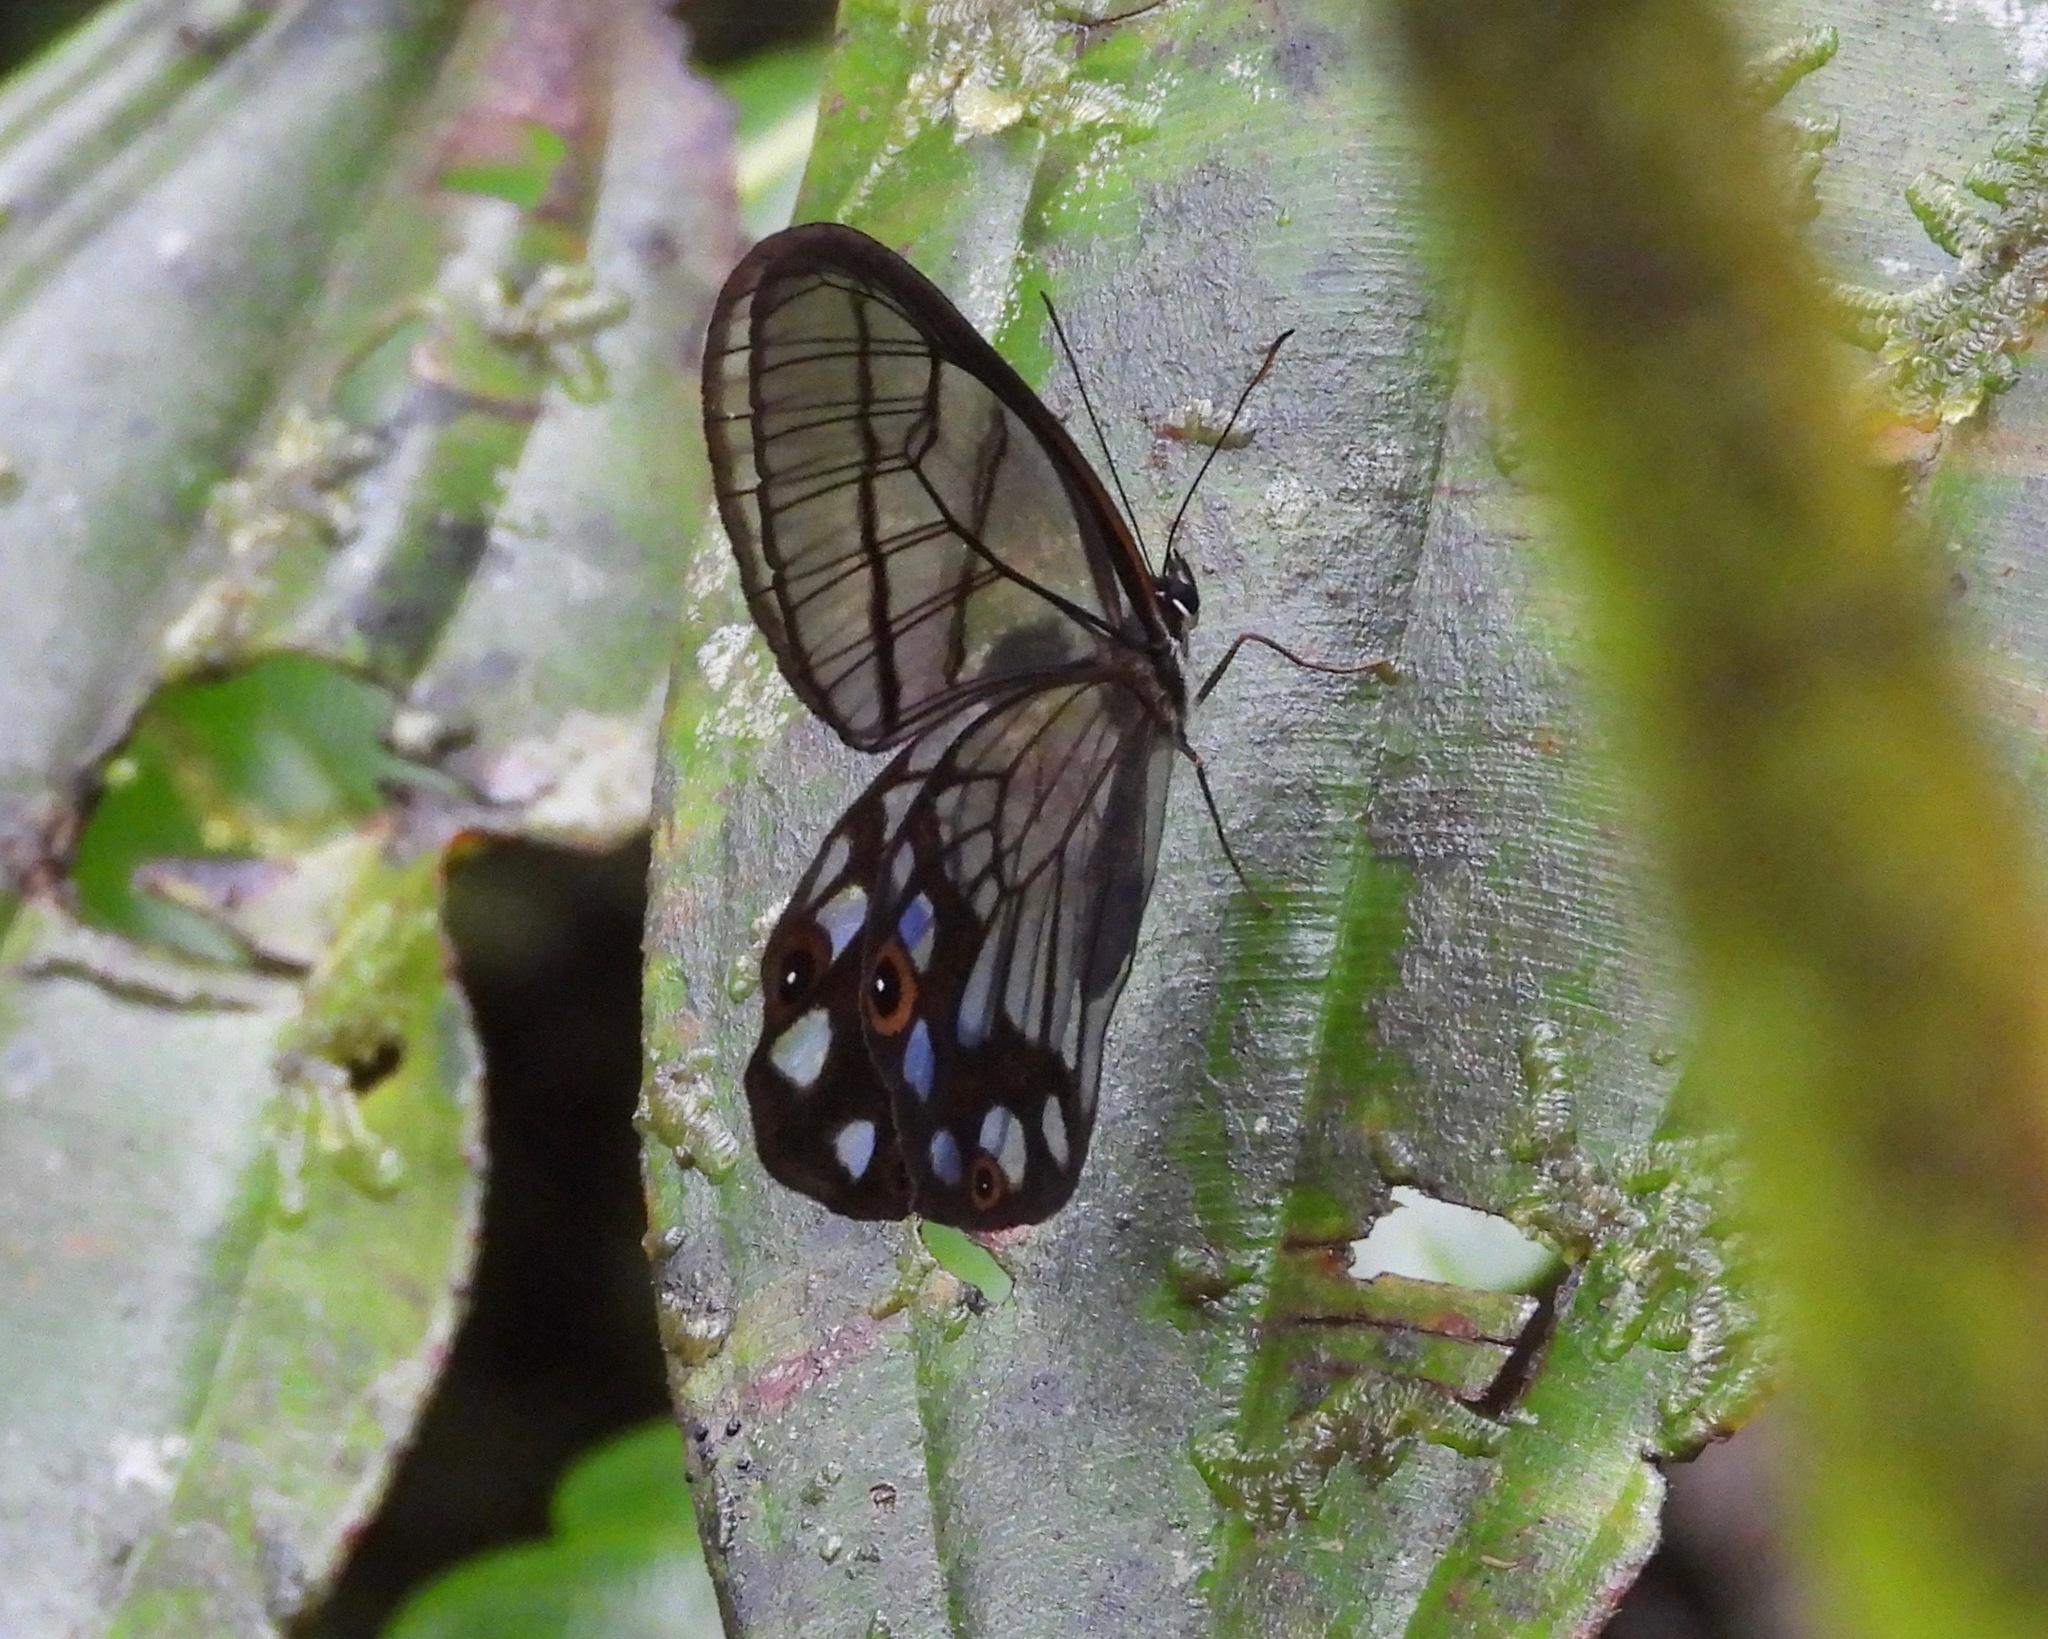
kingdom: Animalia
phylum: Arthropoda
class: Insecta
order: Lepidoptera
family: Nymphalidae
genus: Pseudohaetera
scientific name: Pseudohaetera
